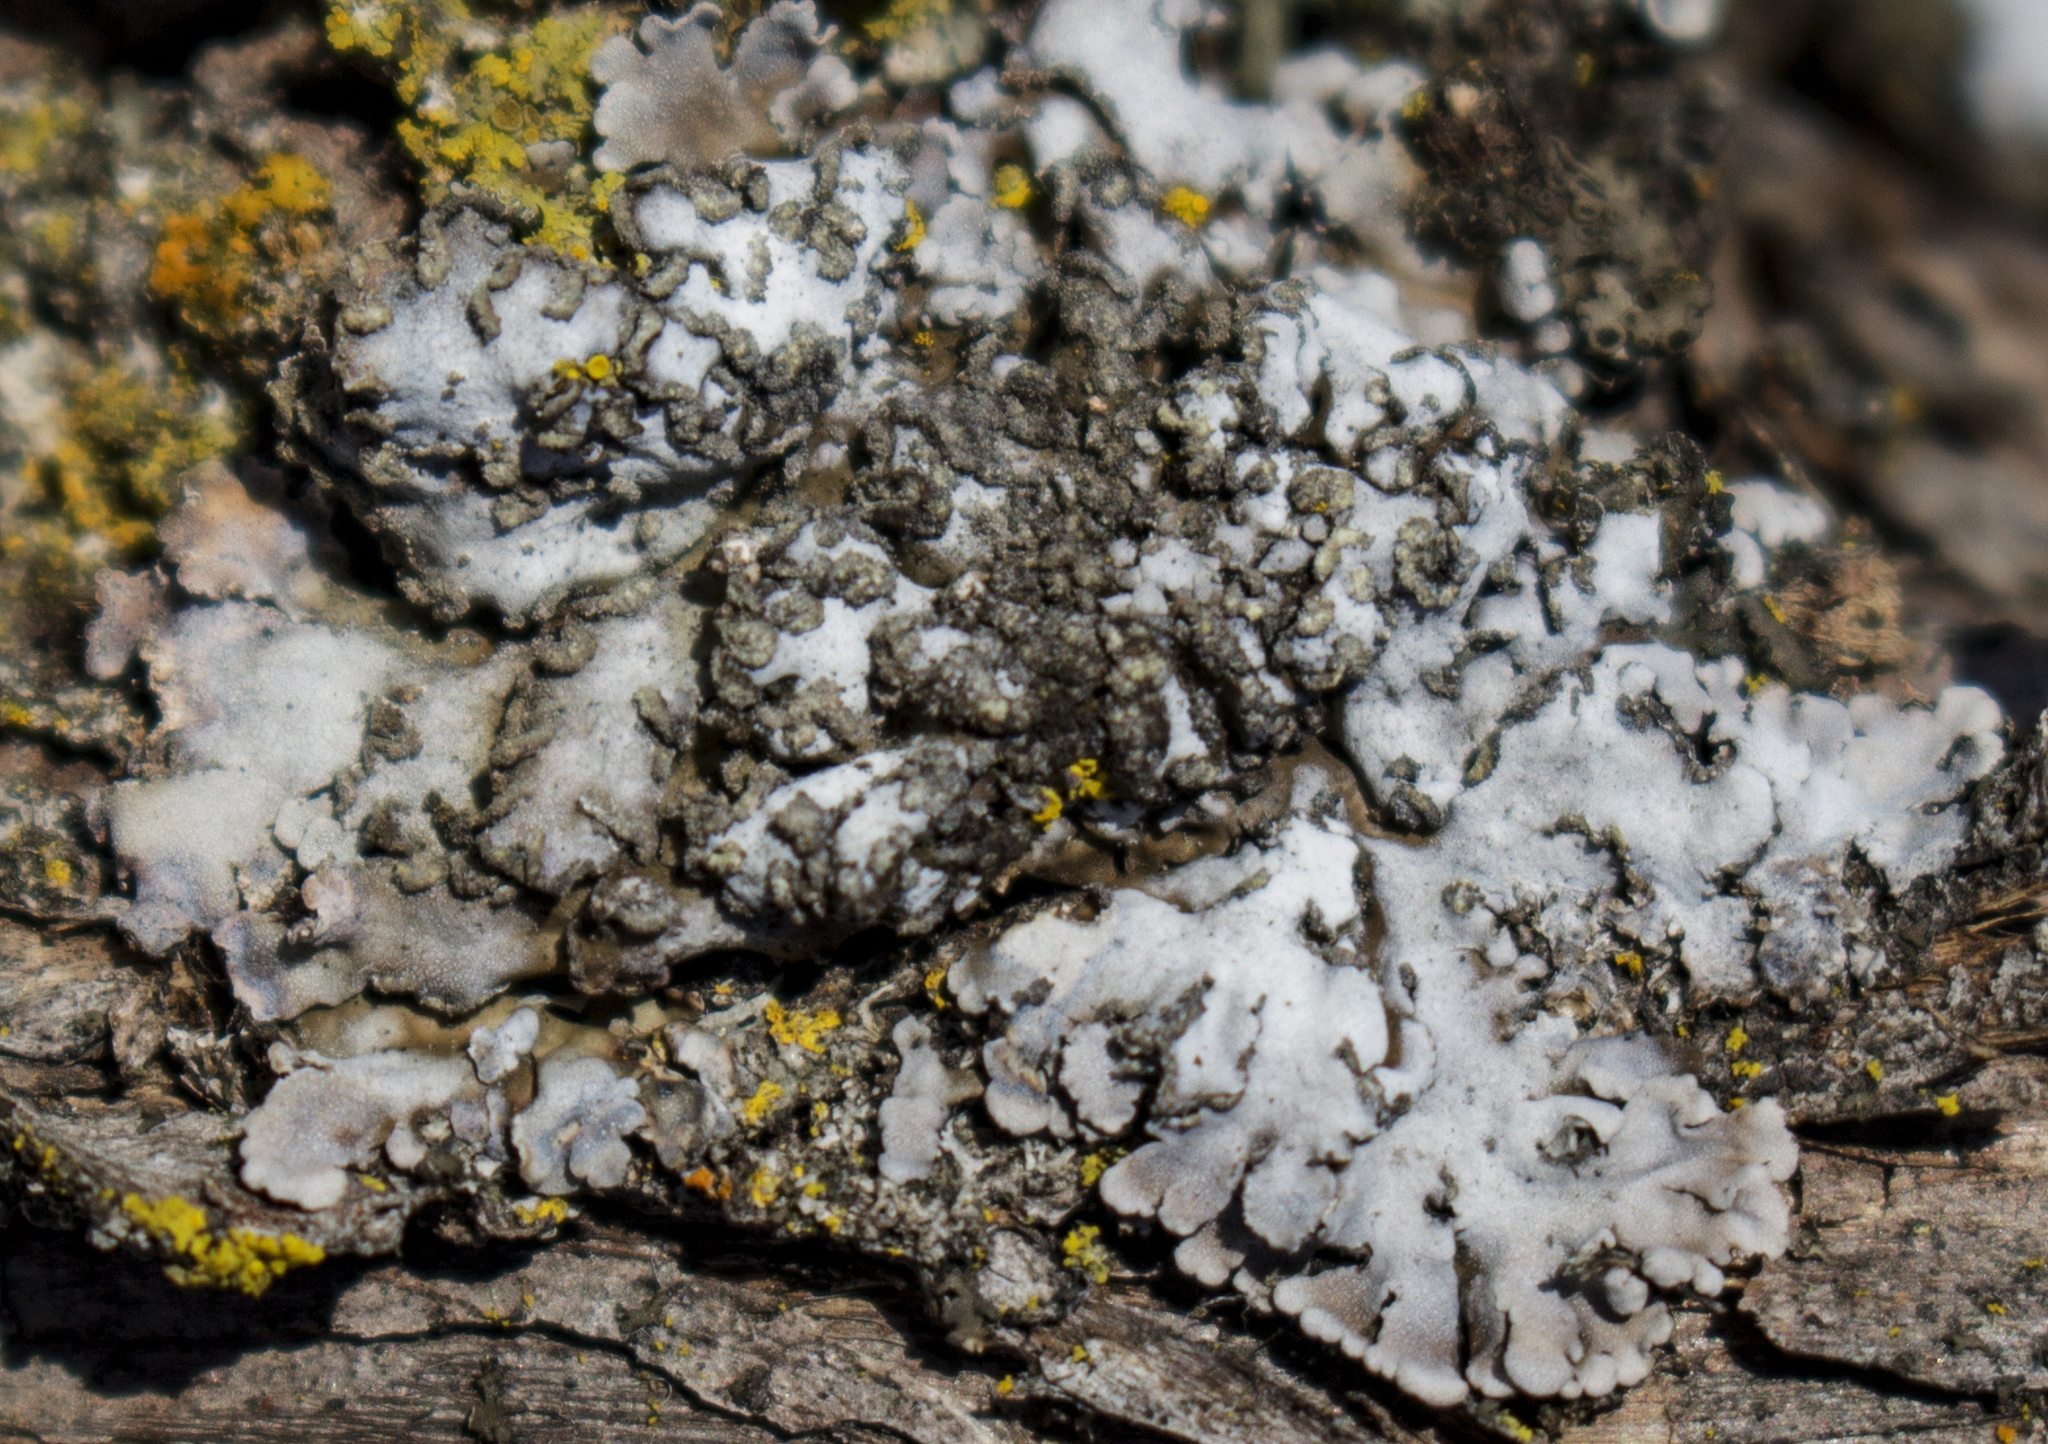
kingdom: Fungi
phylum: Ascomycota
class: Lecanoromycetes
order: Caliciales
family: Physciaceae
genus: Physconia
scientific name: Physconia detersa
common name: Bottlebrush frost lichen
